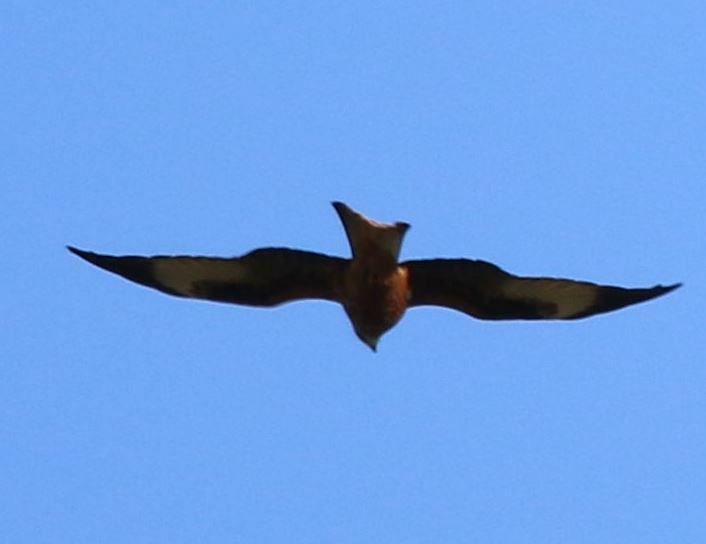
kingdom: Animalia
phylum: Chordata
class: Aves
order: Accipitriformes
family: Accipitridae
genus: Milvus
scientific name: Milvus milvus
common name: Red kite
